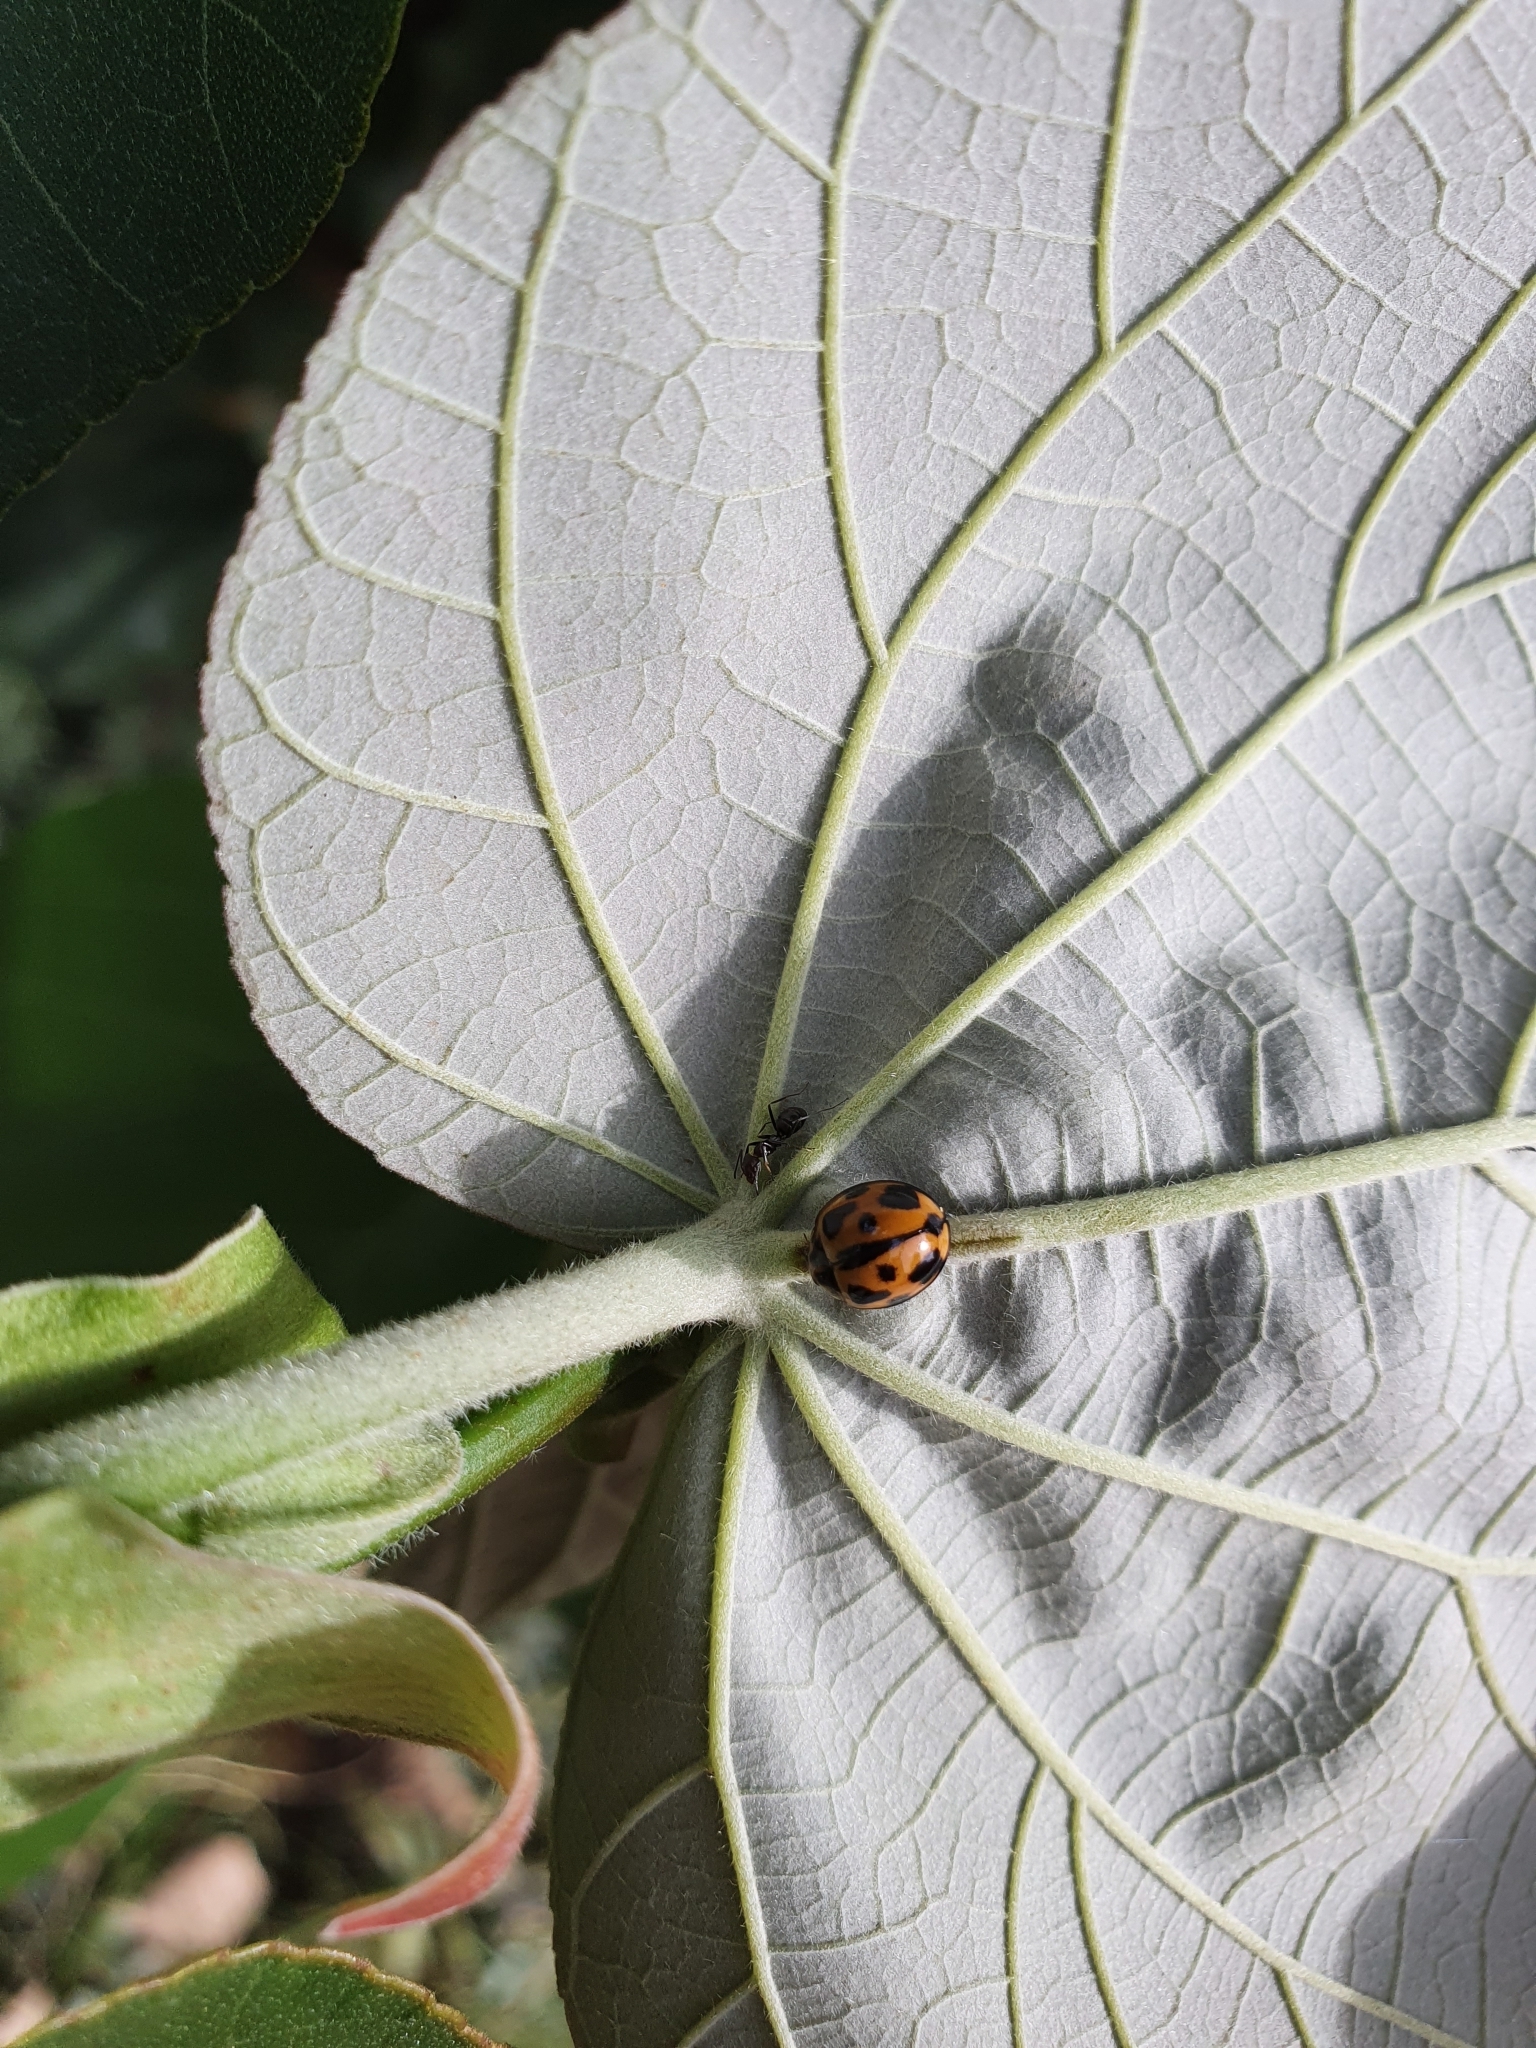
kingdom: Animalia
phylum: Arthropoda
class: Insecta
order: Coleoptera
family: Coccinellidae
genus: Coelophora
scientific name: Coelophora inaequalis
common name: Common australian lady beetle
